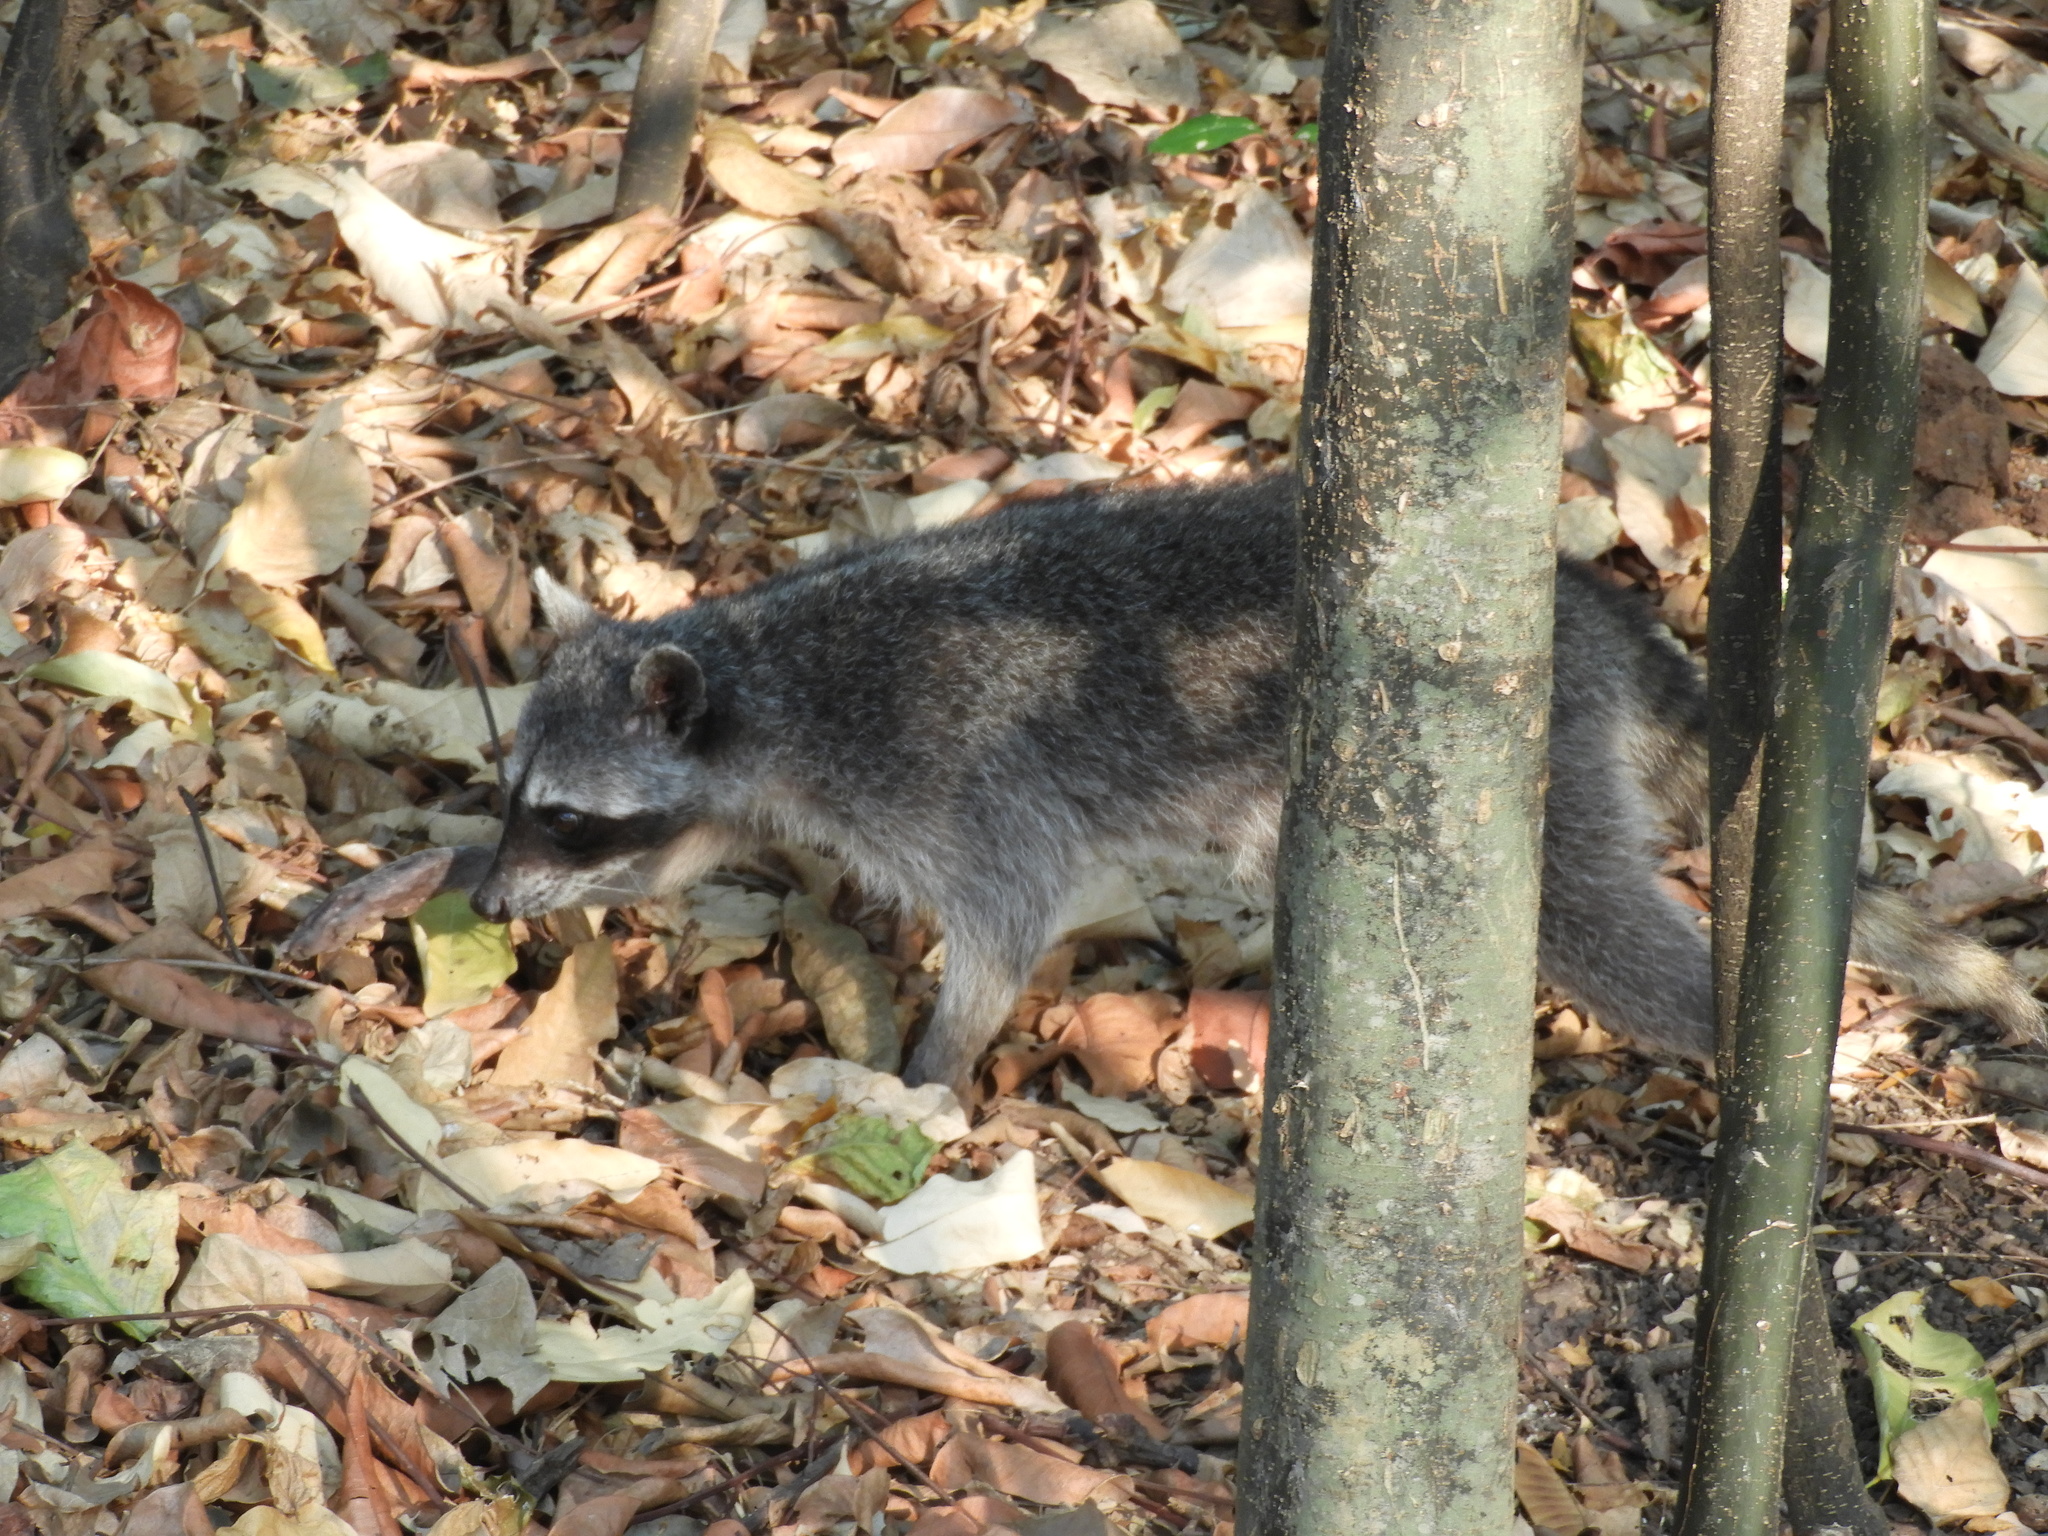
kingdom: Animalia
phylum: Chordata
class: Mammalia
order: Carnivora
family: Procyonidae
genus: Procyon
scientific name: Procyon lotor
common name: Raccoon
